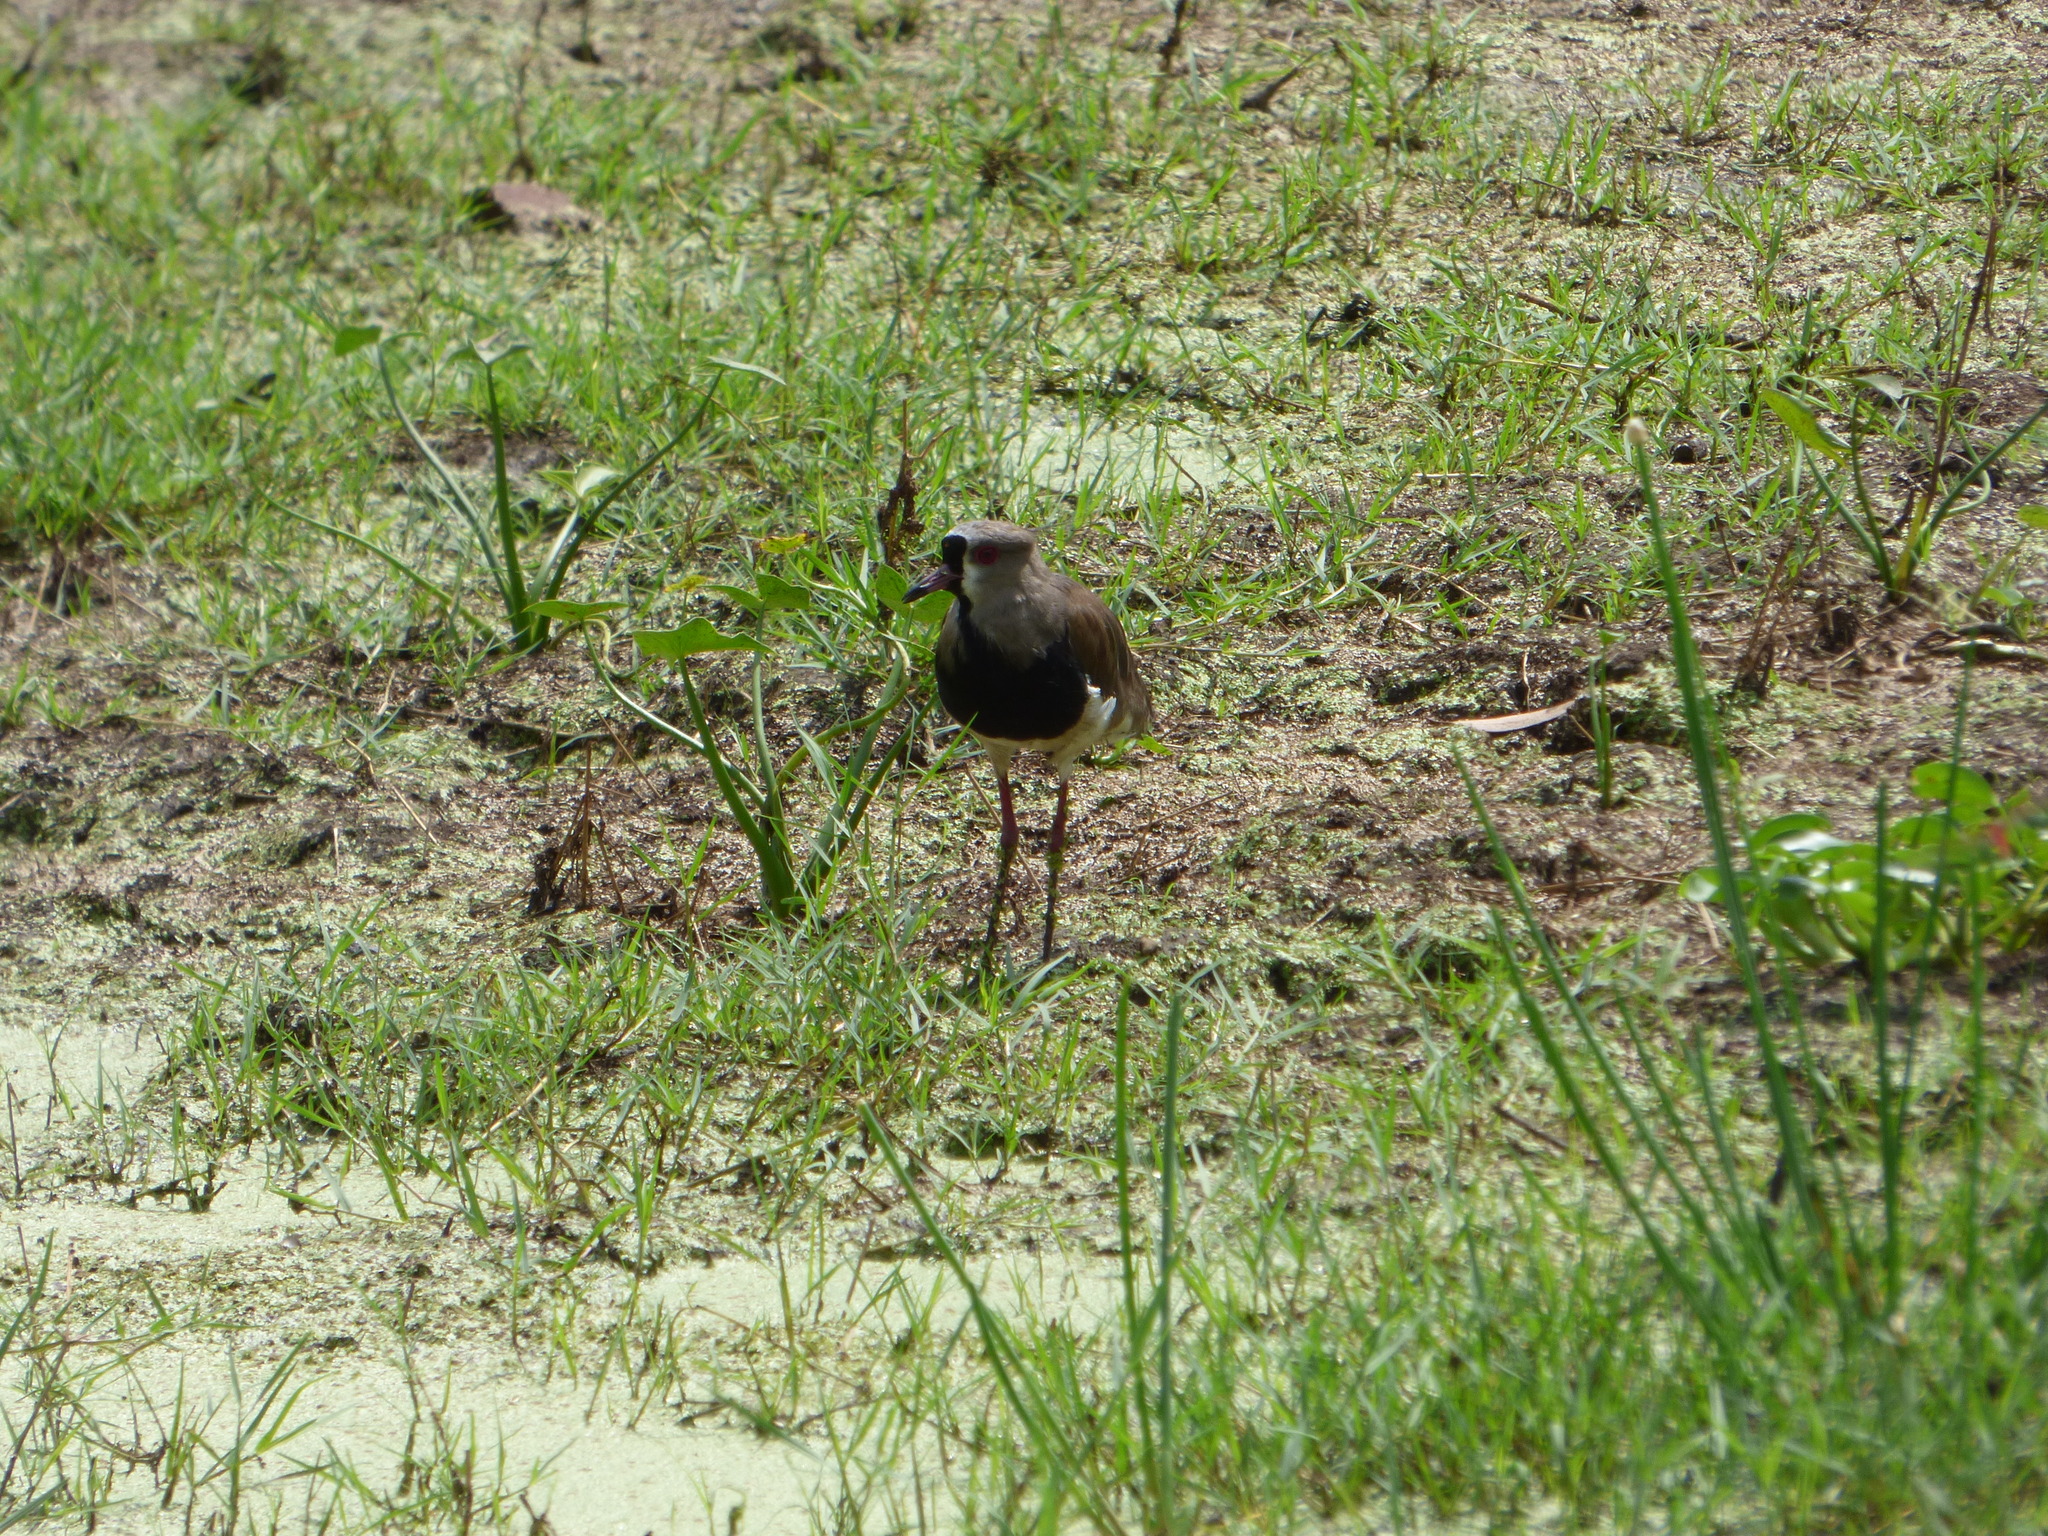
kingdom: Animalia
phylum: Chordata
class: Aves
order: Charadriiformes
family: Charadriidae
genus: Vanellus
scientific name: Vanellus chilensis
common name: Southern lapwing
